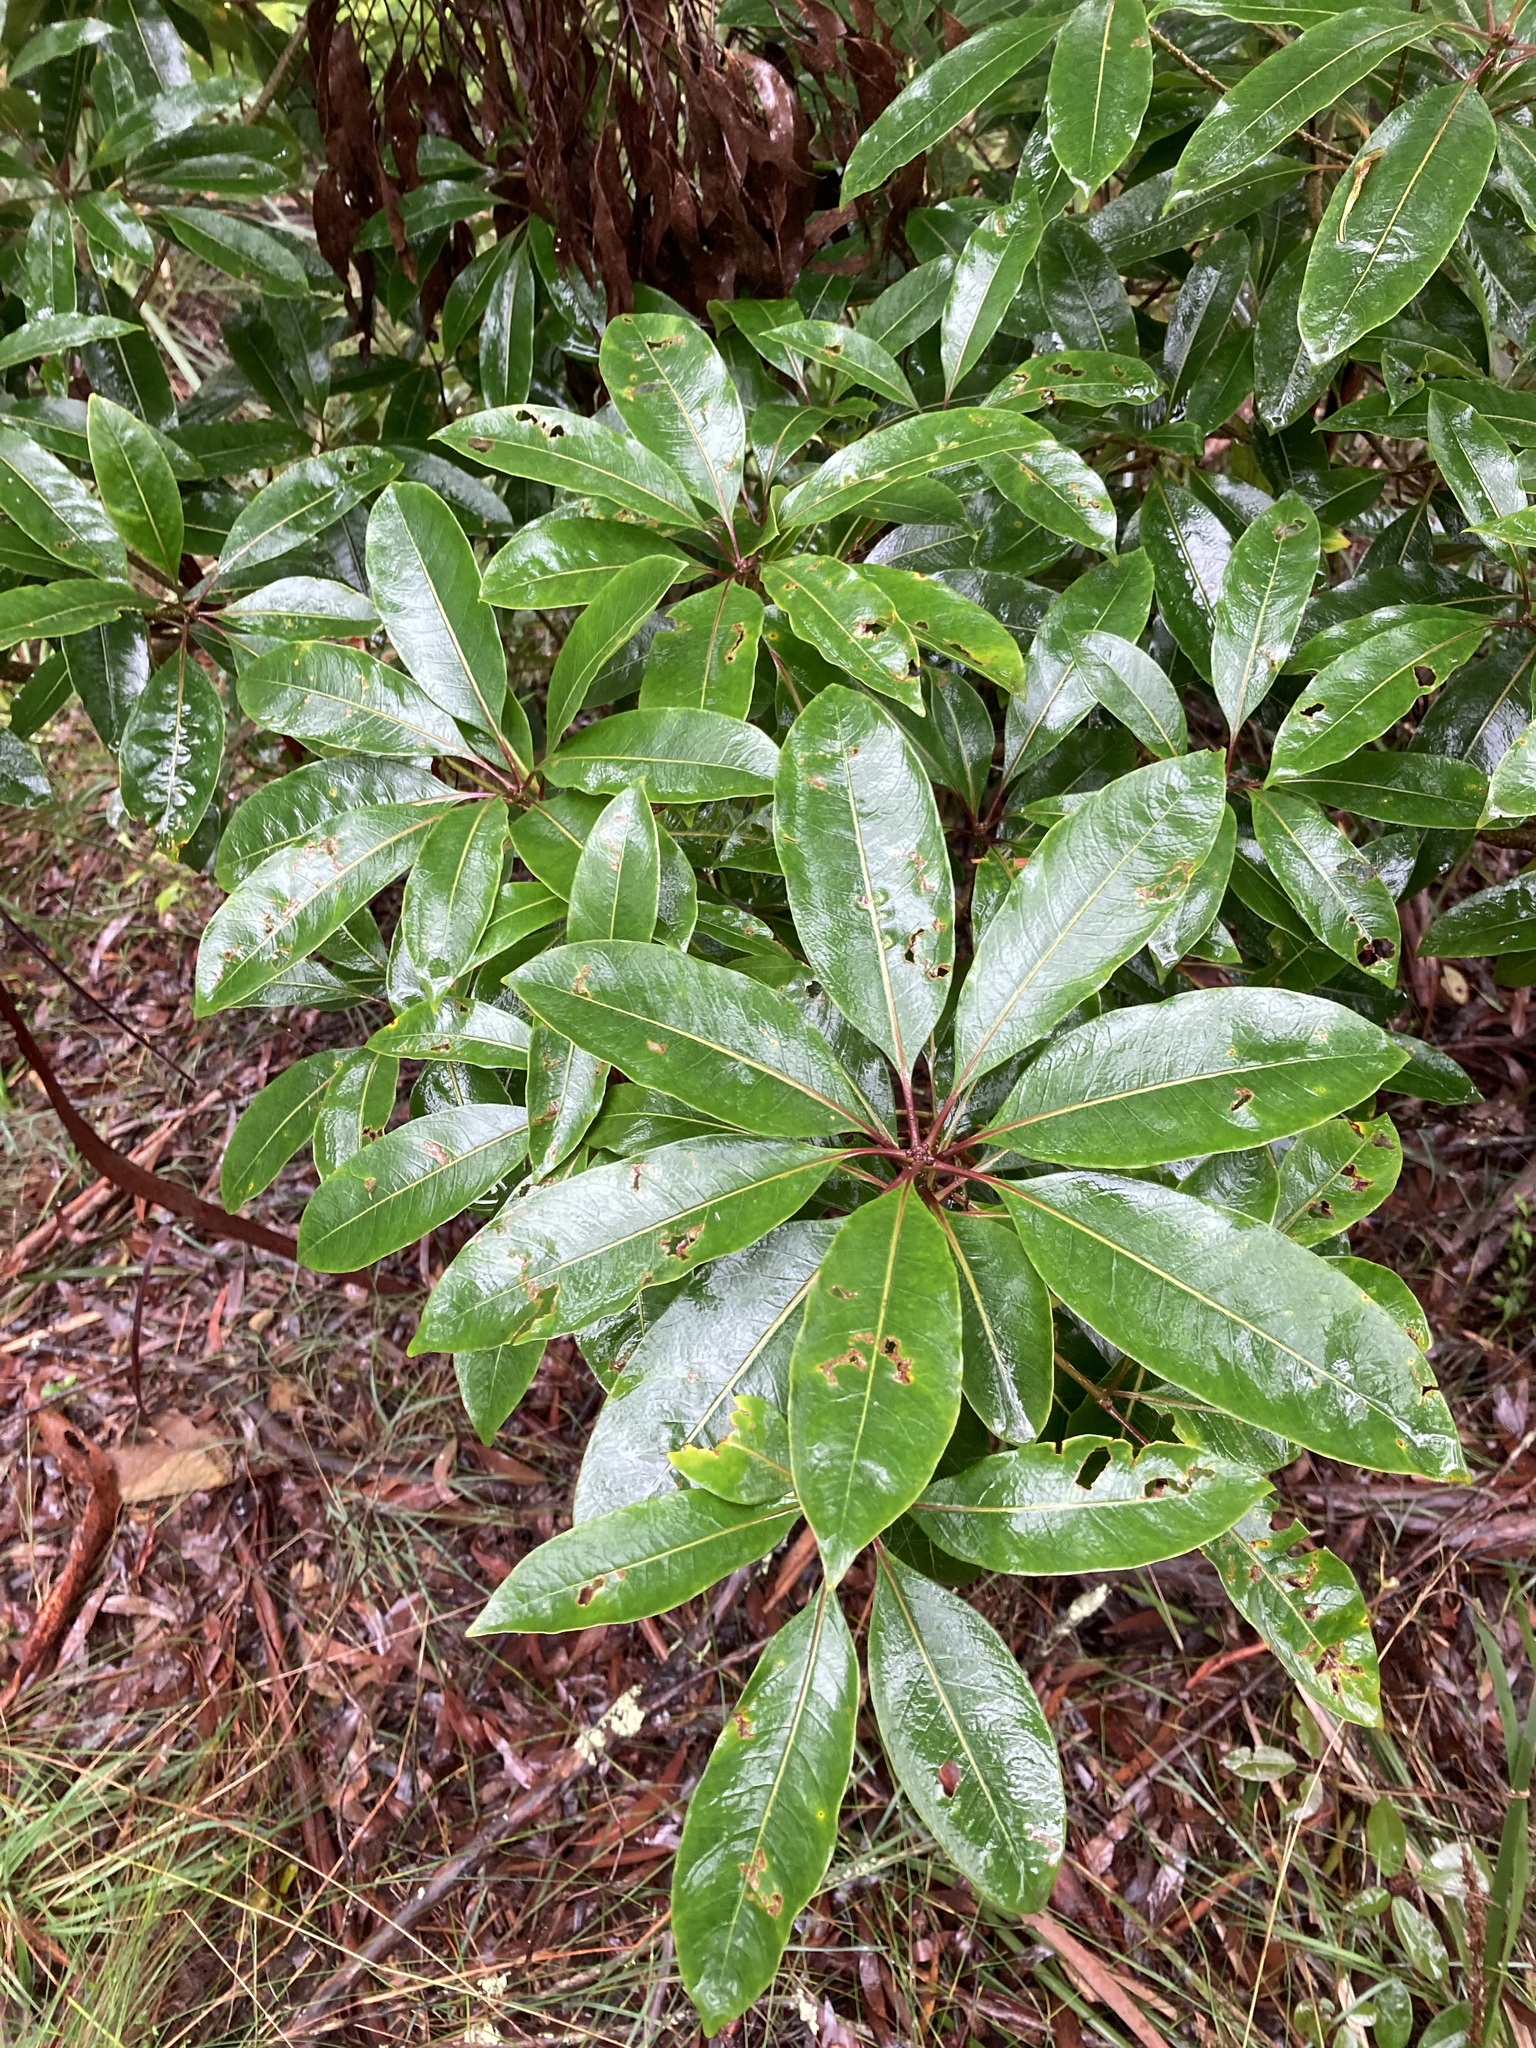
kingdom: Plantae
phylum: Tracheophyta
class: Magnoliopsida
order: Apiales
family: Pittosporaceae
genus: Pittosporum
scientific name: Pittosporum undulatum
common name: Australian cheesewood
